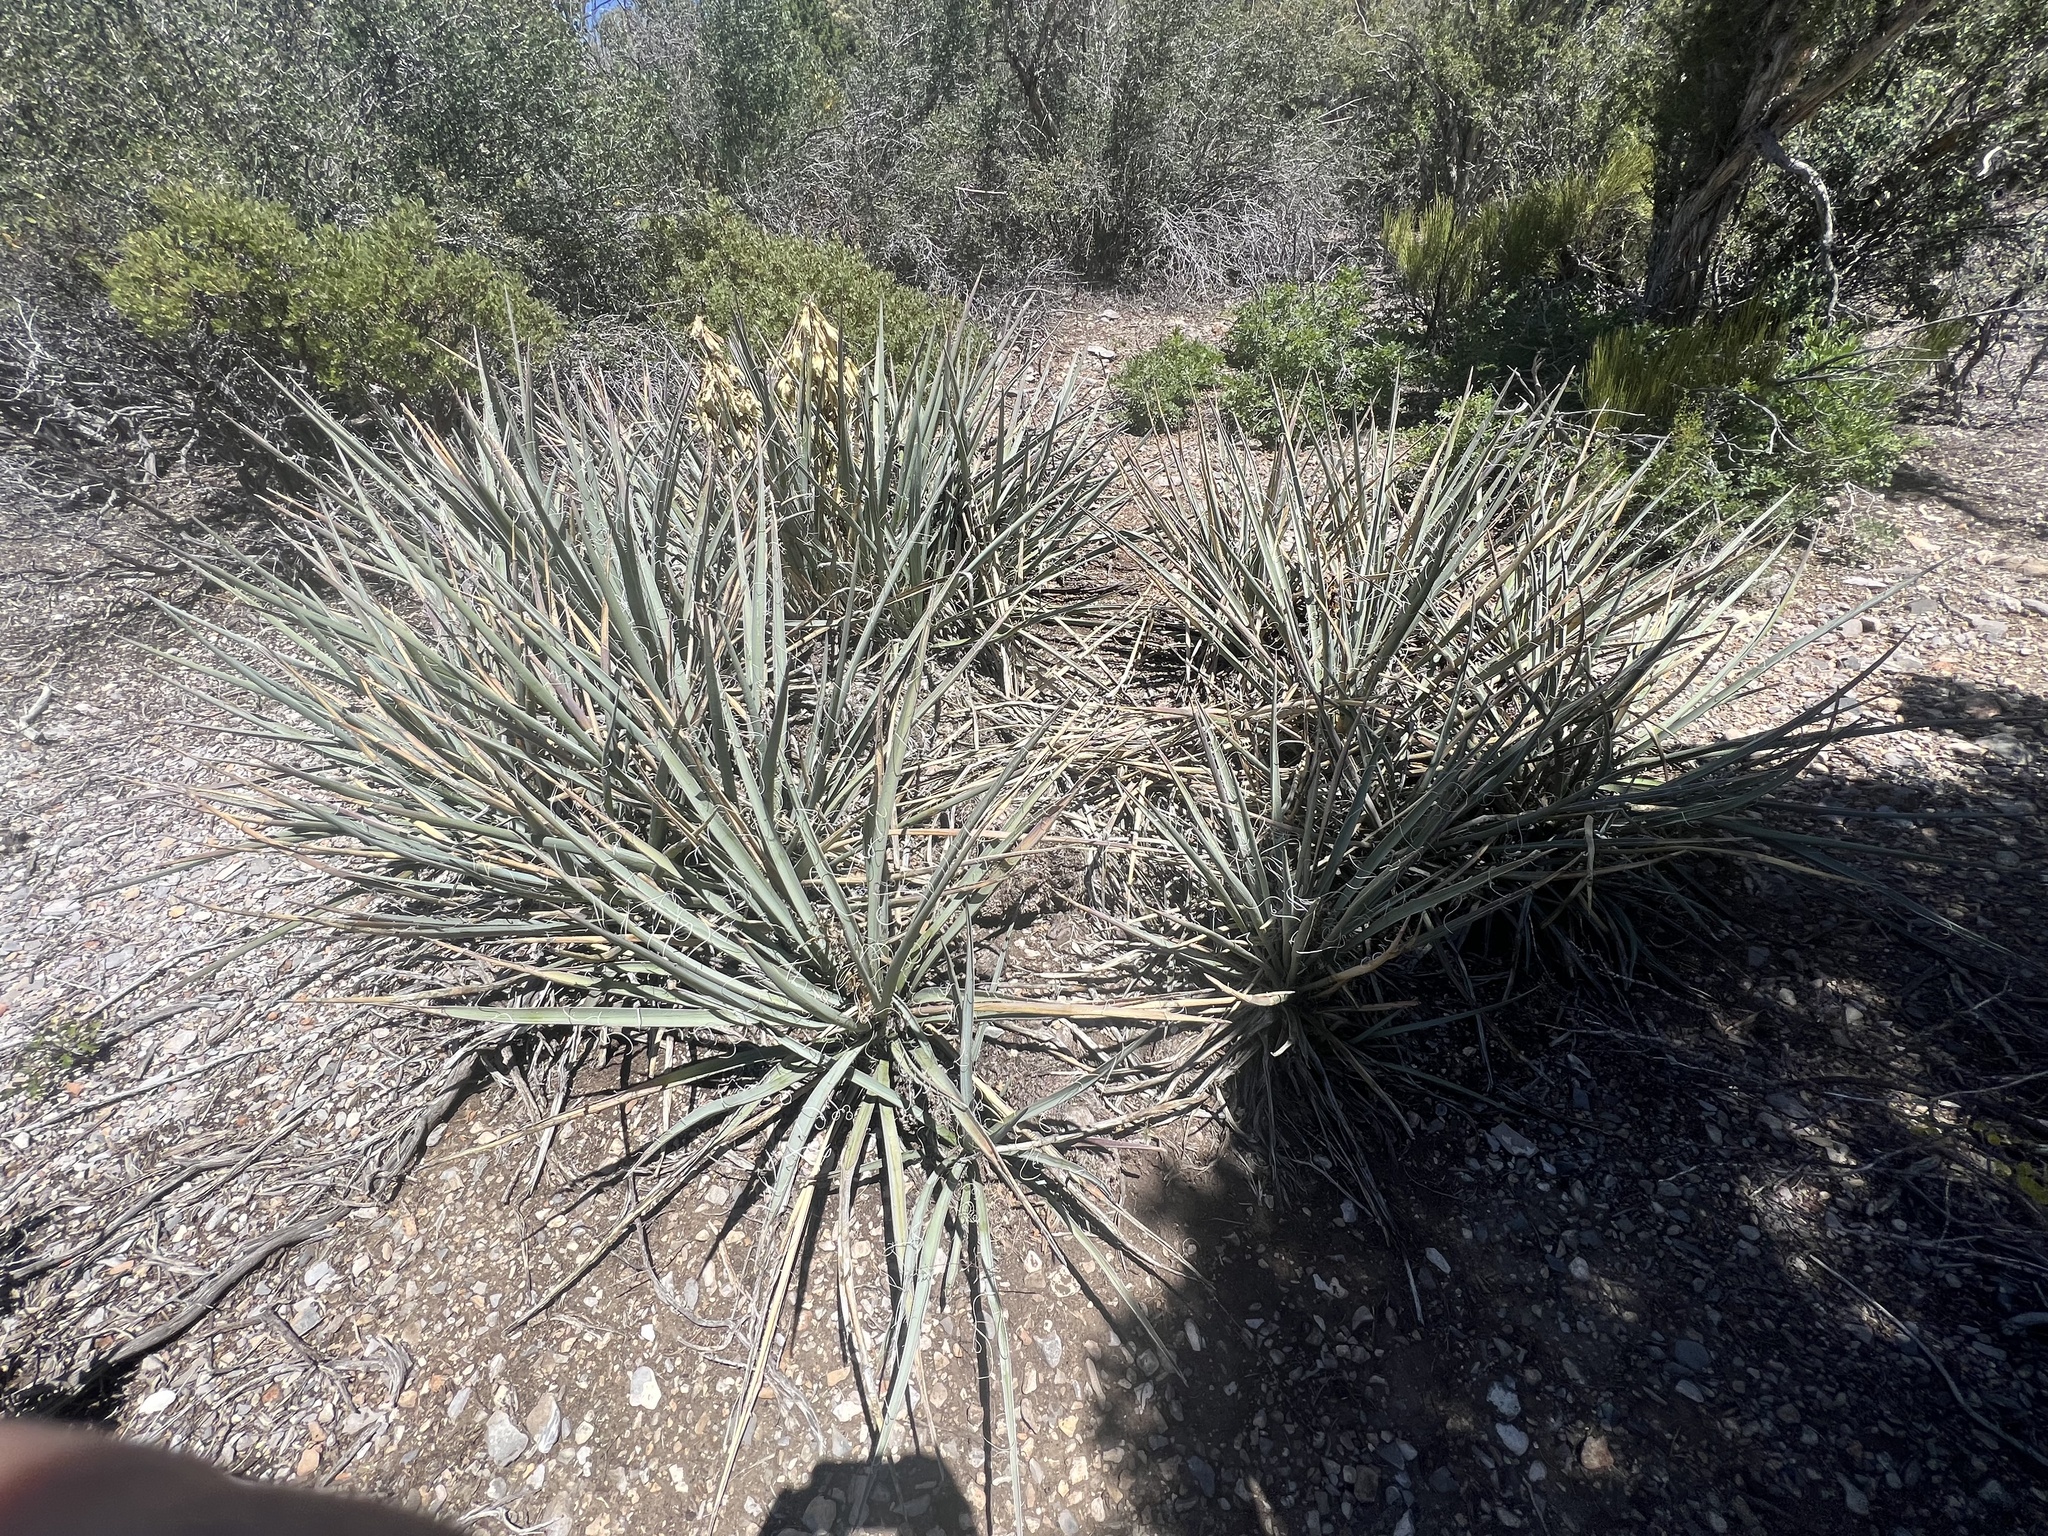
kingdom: Plantae
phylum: Tracheophyta
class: Liliopsida
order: Asparagales
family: Asparagaceae
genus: Yucca
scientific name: Yucca baccata
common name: Banana yucca
